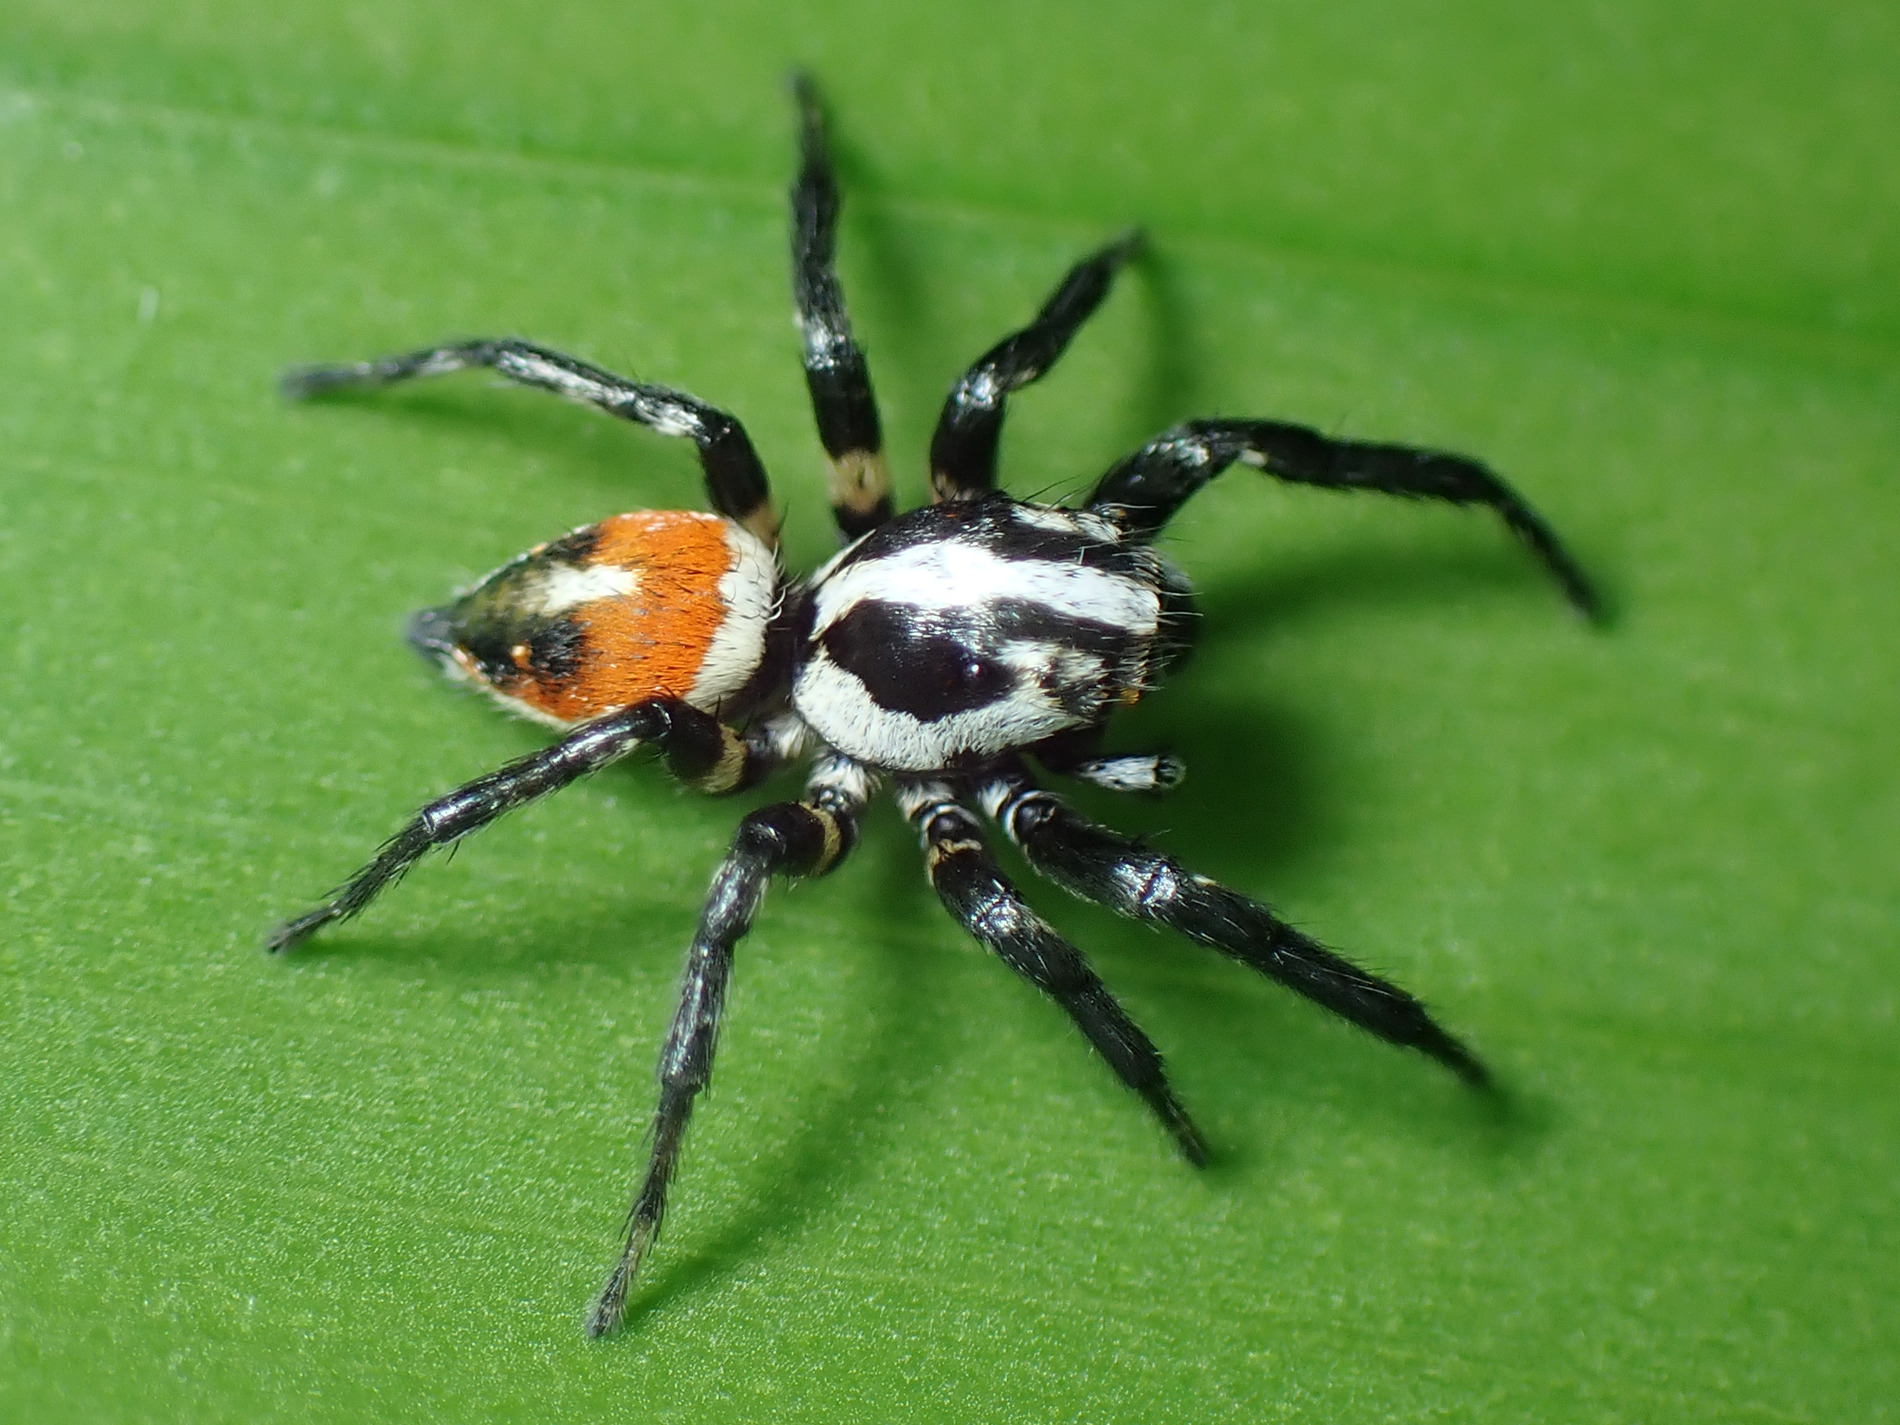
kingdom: Animalia
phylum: Arthropoda
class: Arachnida
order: Araneae
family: Salticidae
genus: Nycerella
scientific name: Nycerella delecta
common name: Jumping spiders
